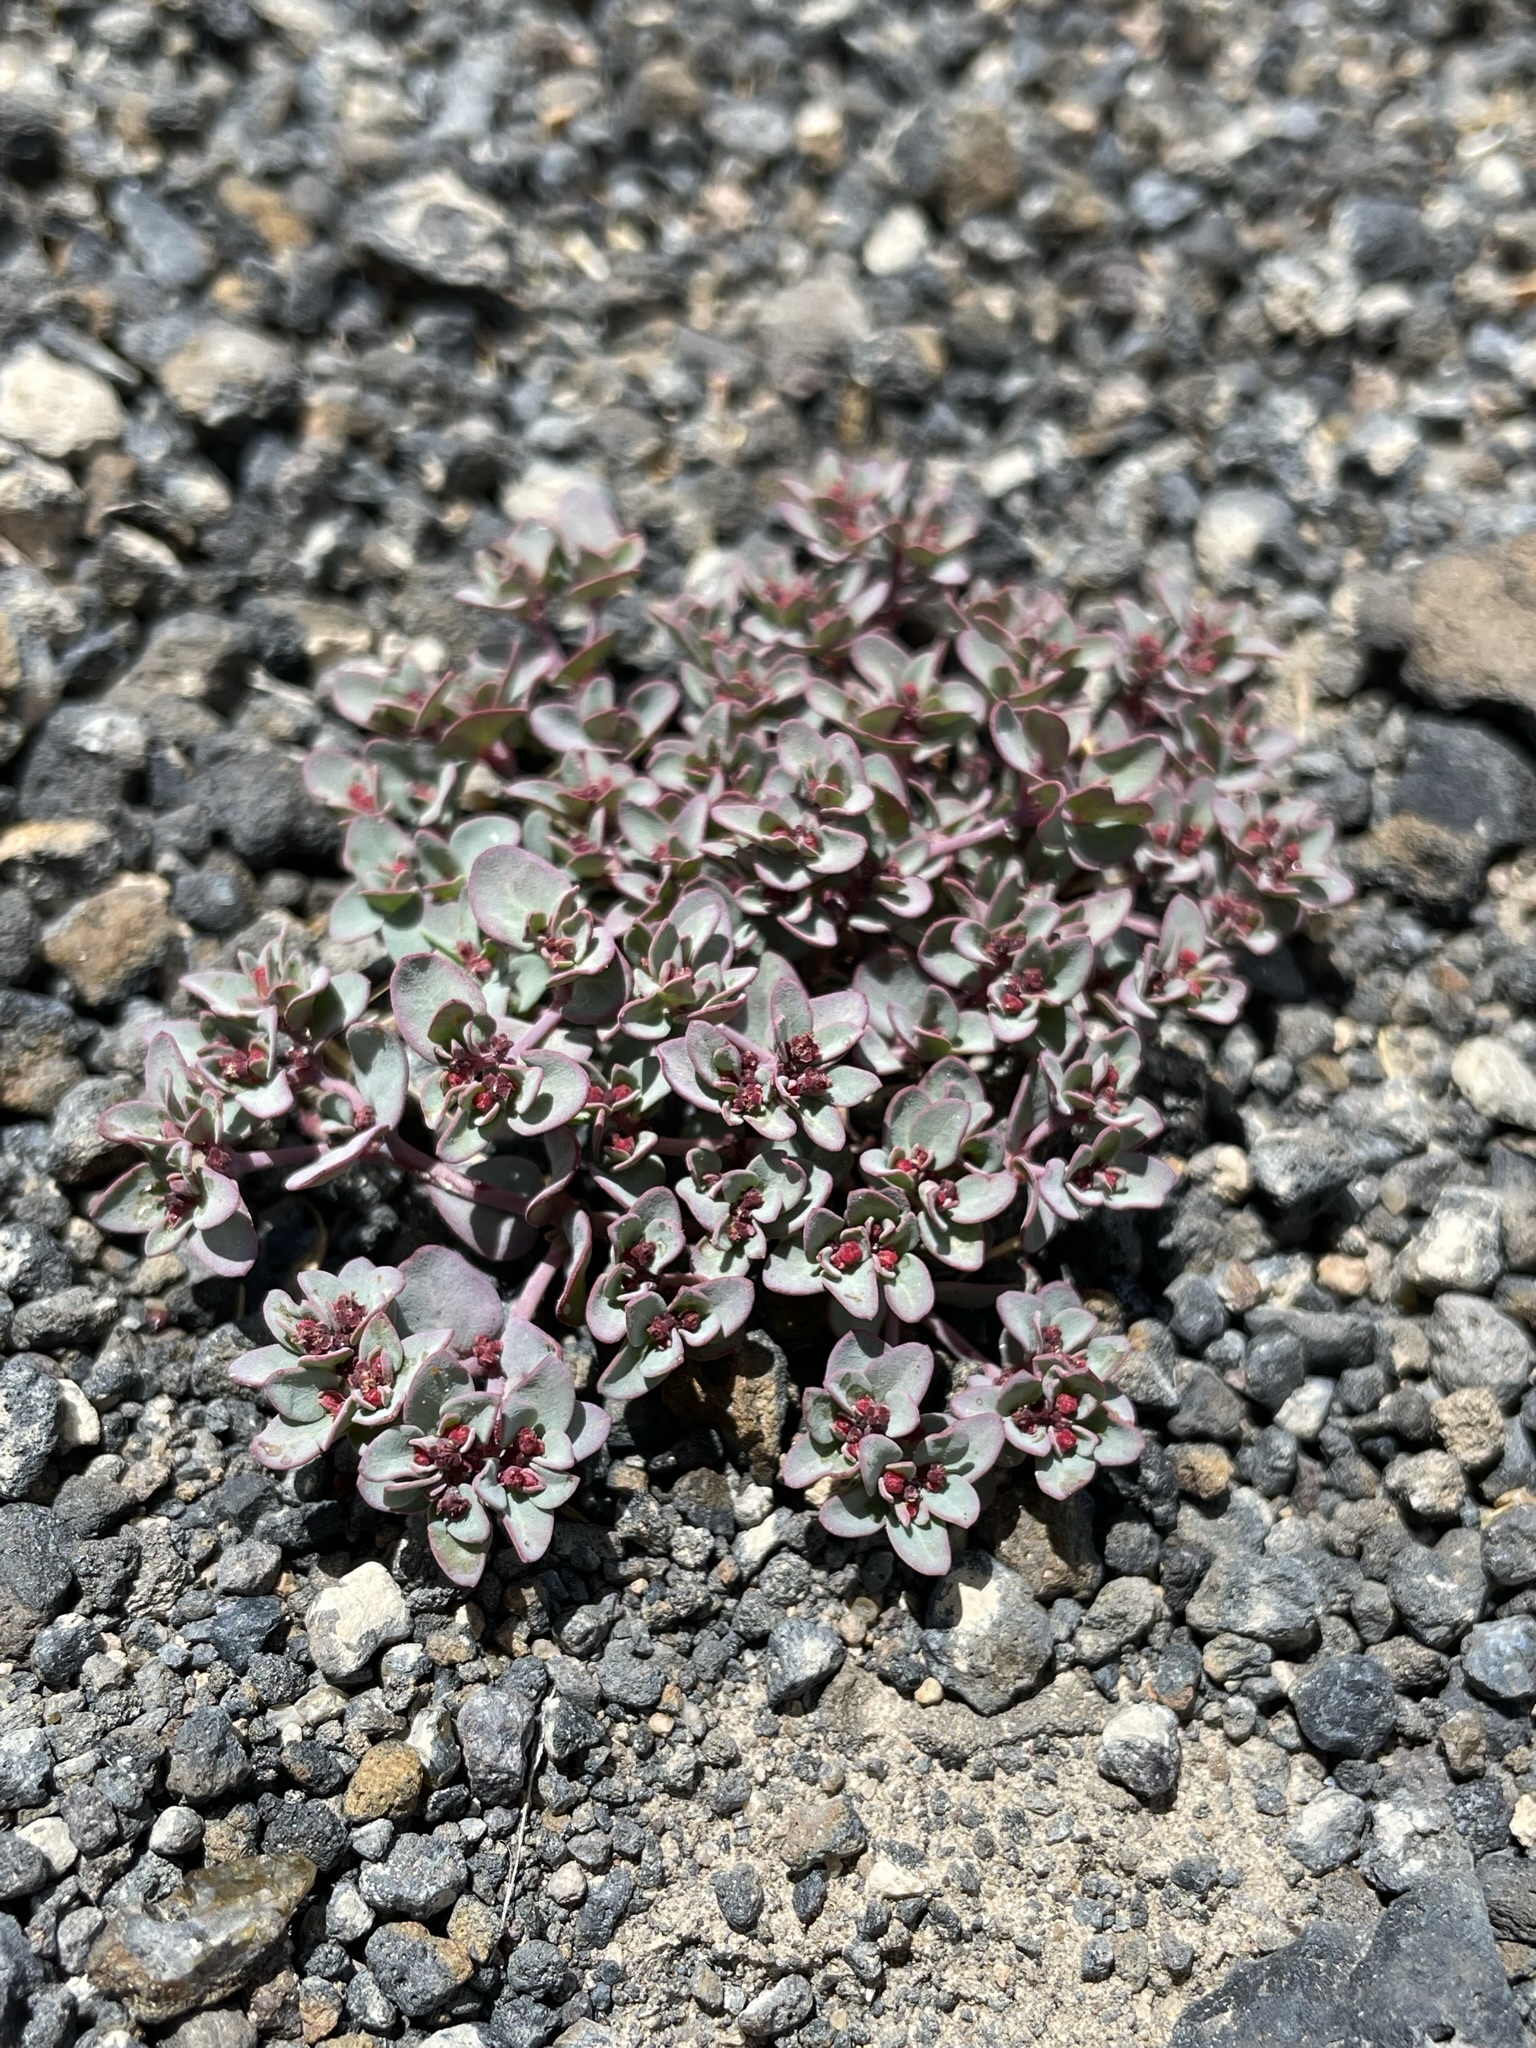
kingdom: Plantae
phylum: Tracheophyta
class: Magnoliopsida
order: Malpighiales
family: Euphorbiaceae
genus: Euphorbia
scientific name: Euphorbia fendleri
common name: Fendler's euphorbia
